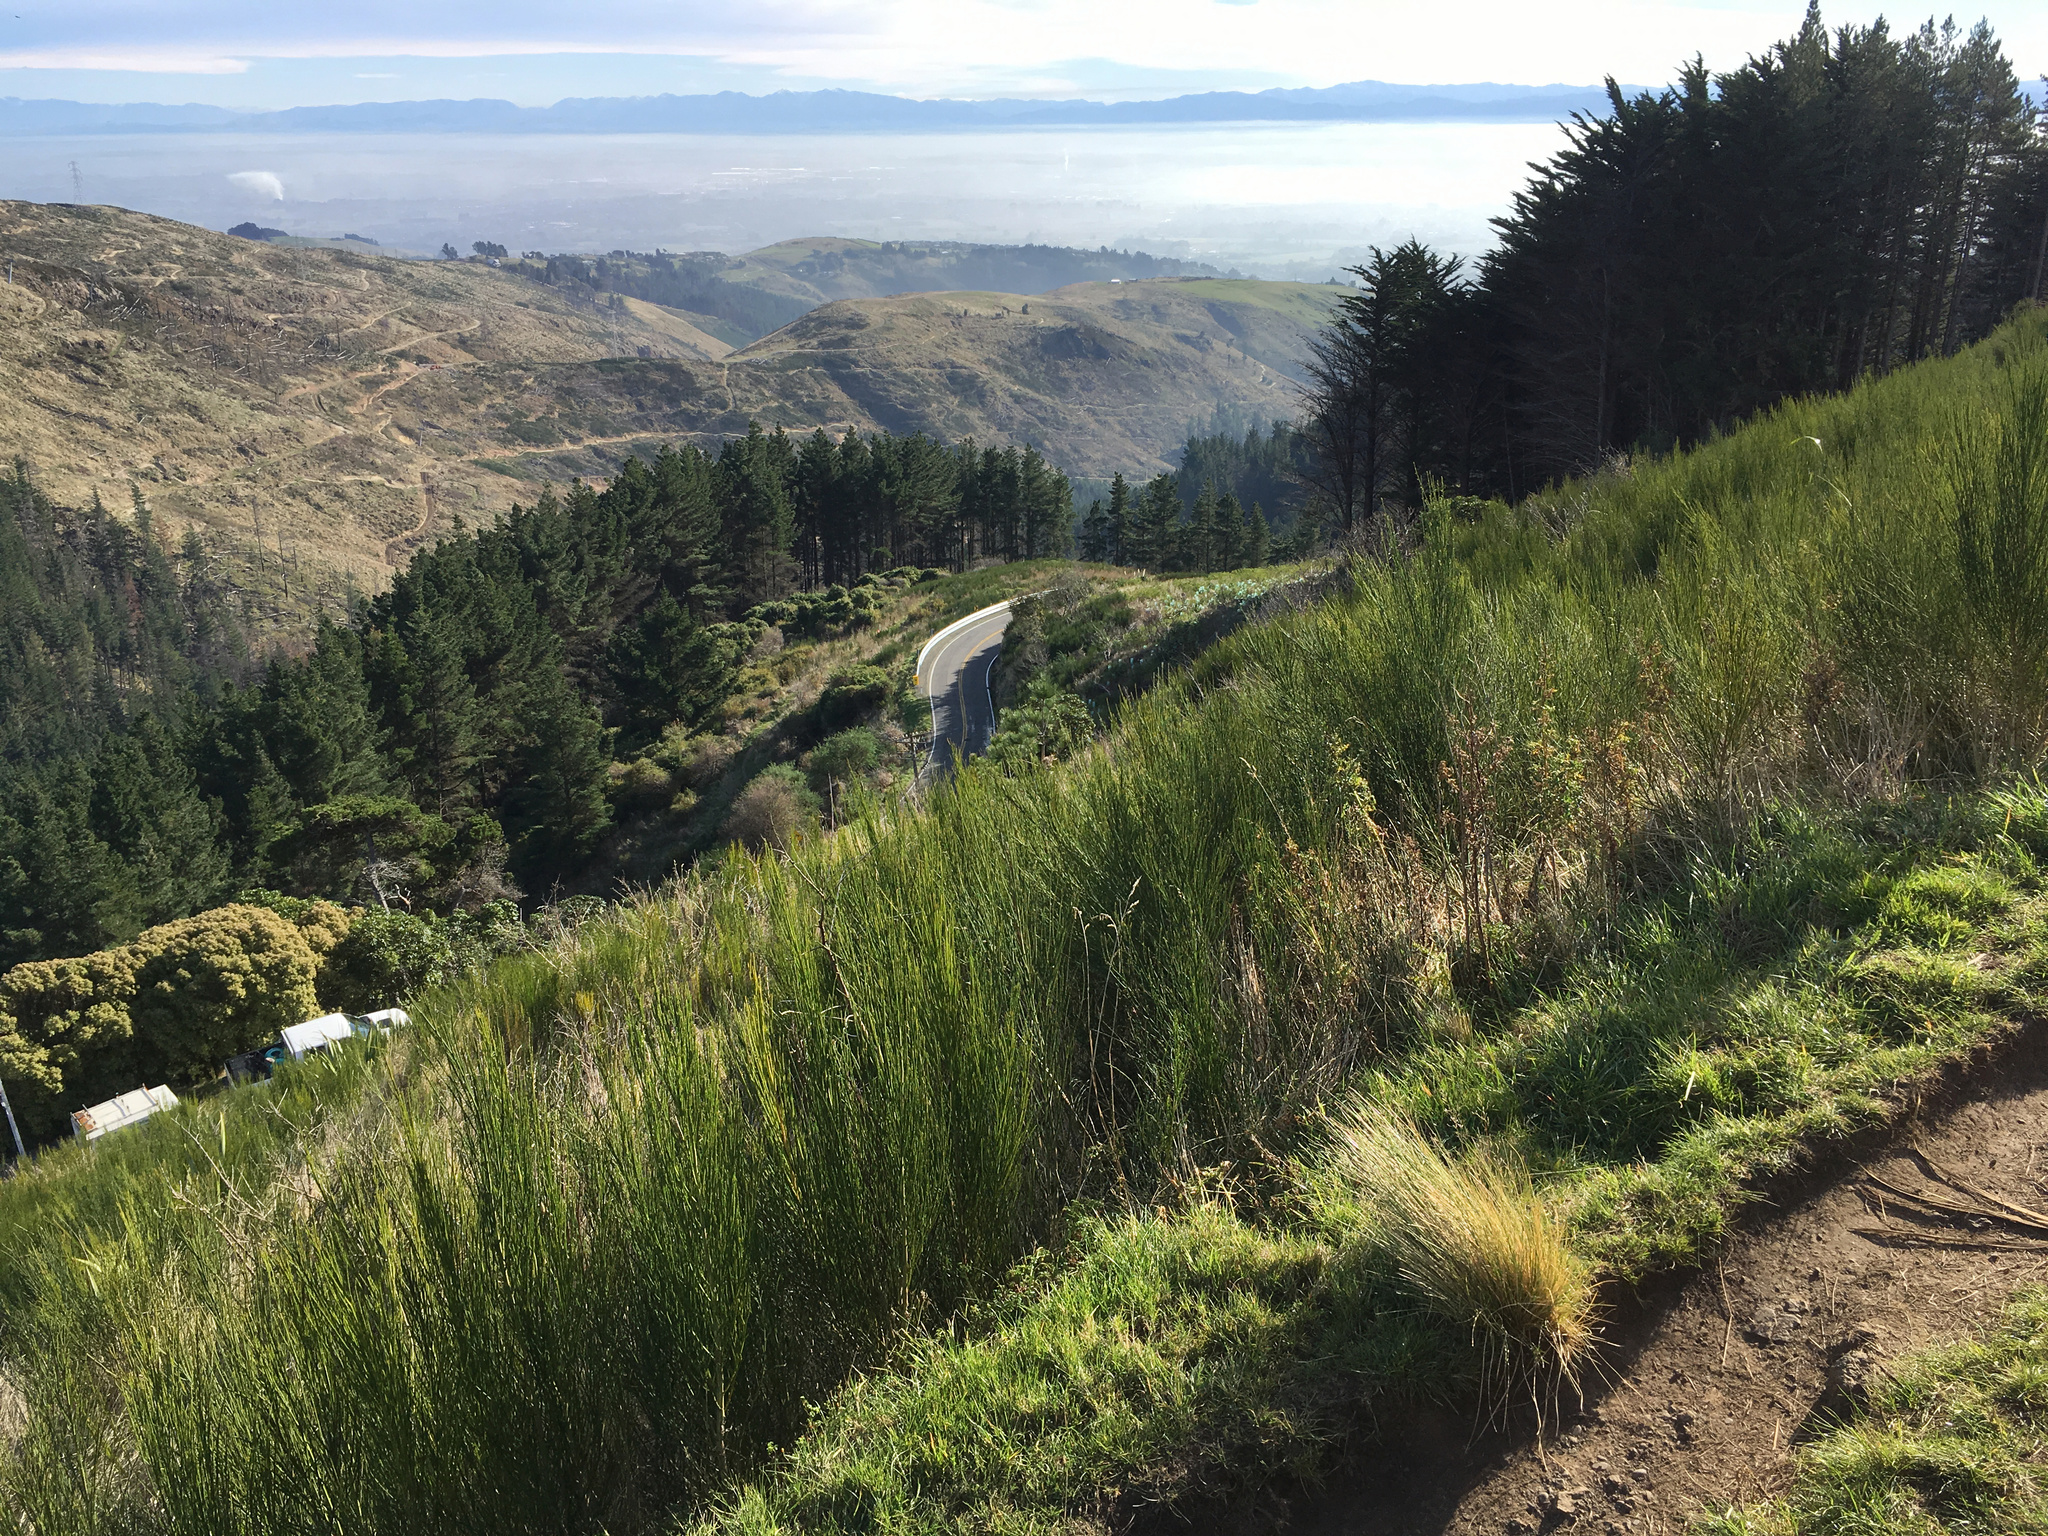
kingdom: Plantae
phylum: Tracheophyta
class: Magnoliopsida
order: Fabales
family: Fabaceae
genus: Cytisus
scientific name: Cytisus scoparius
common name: Scotch broom
